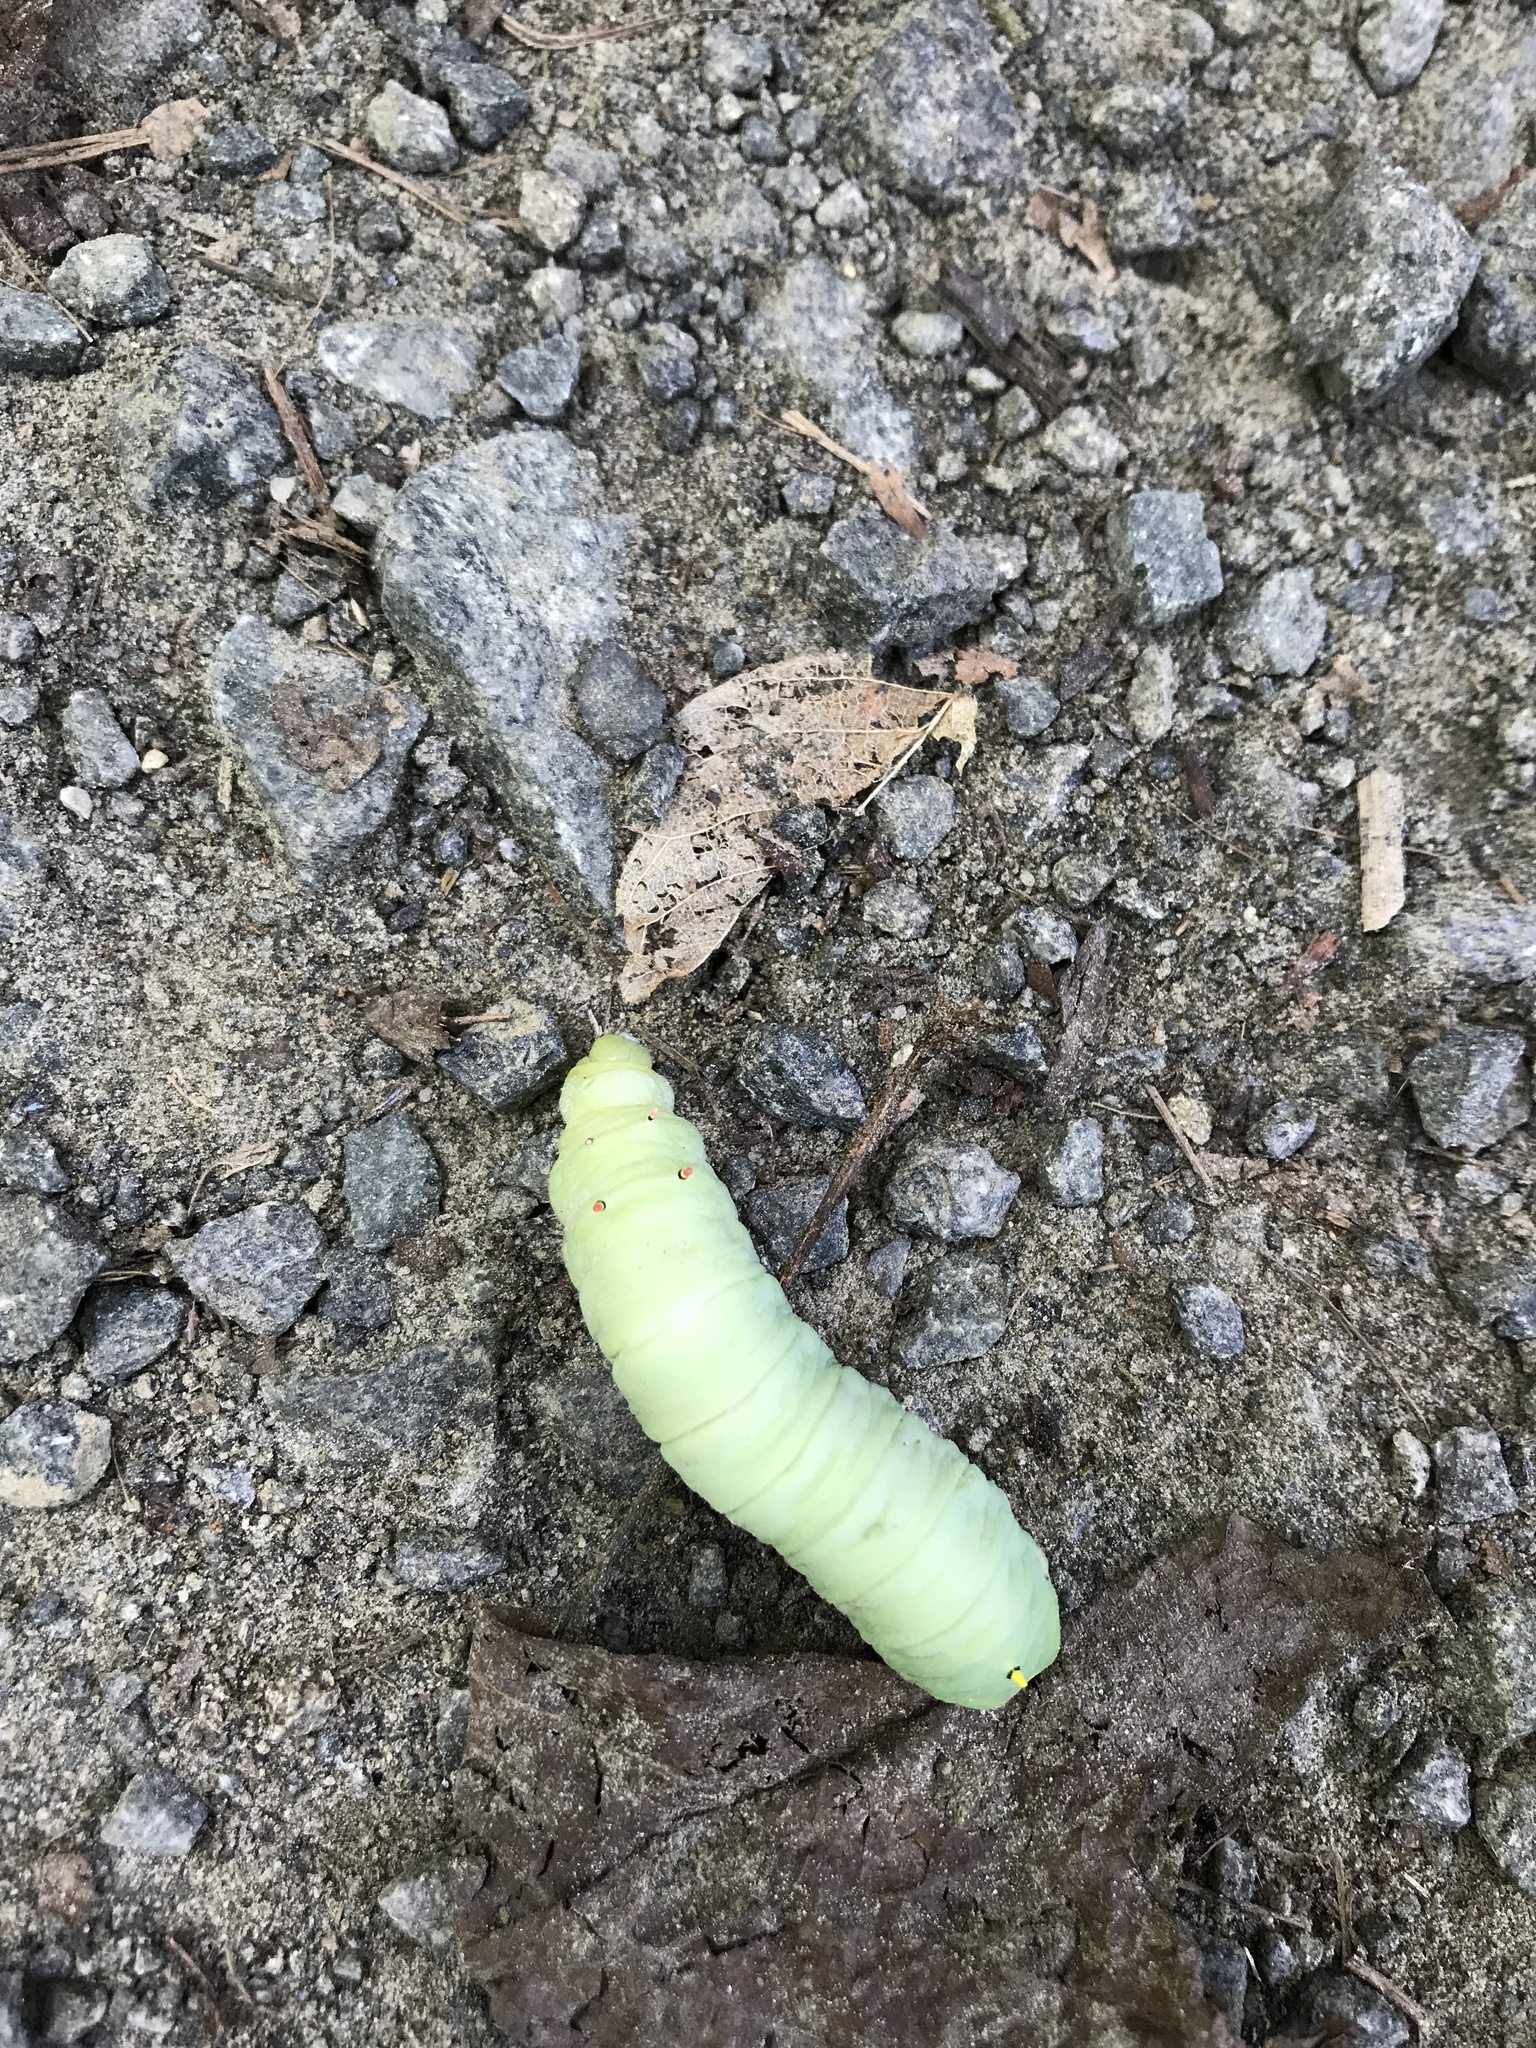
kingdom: Animalia
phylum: Arthropoda
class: Insecta
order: Lepidoptera
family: Saturniidae
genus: Callosamia
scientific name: Callosamia angulifera
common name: Tulip tree silkmoth
